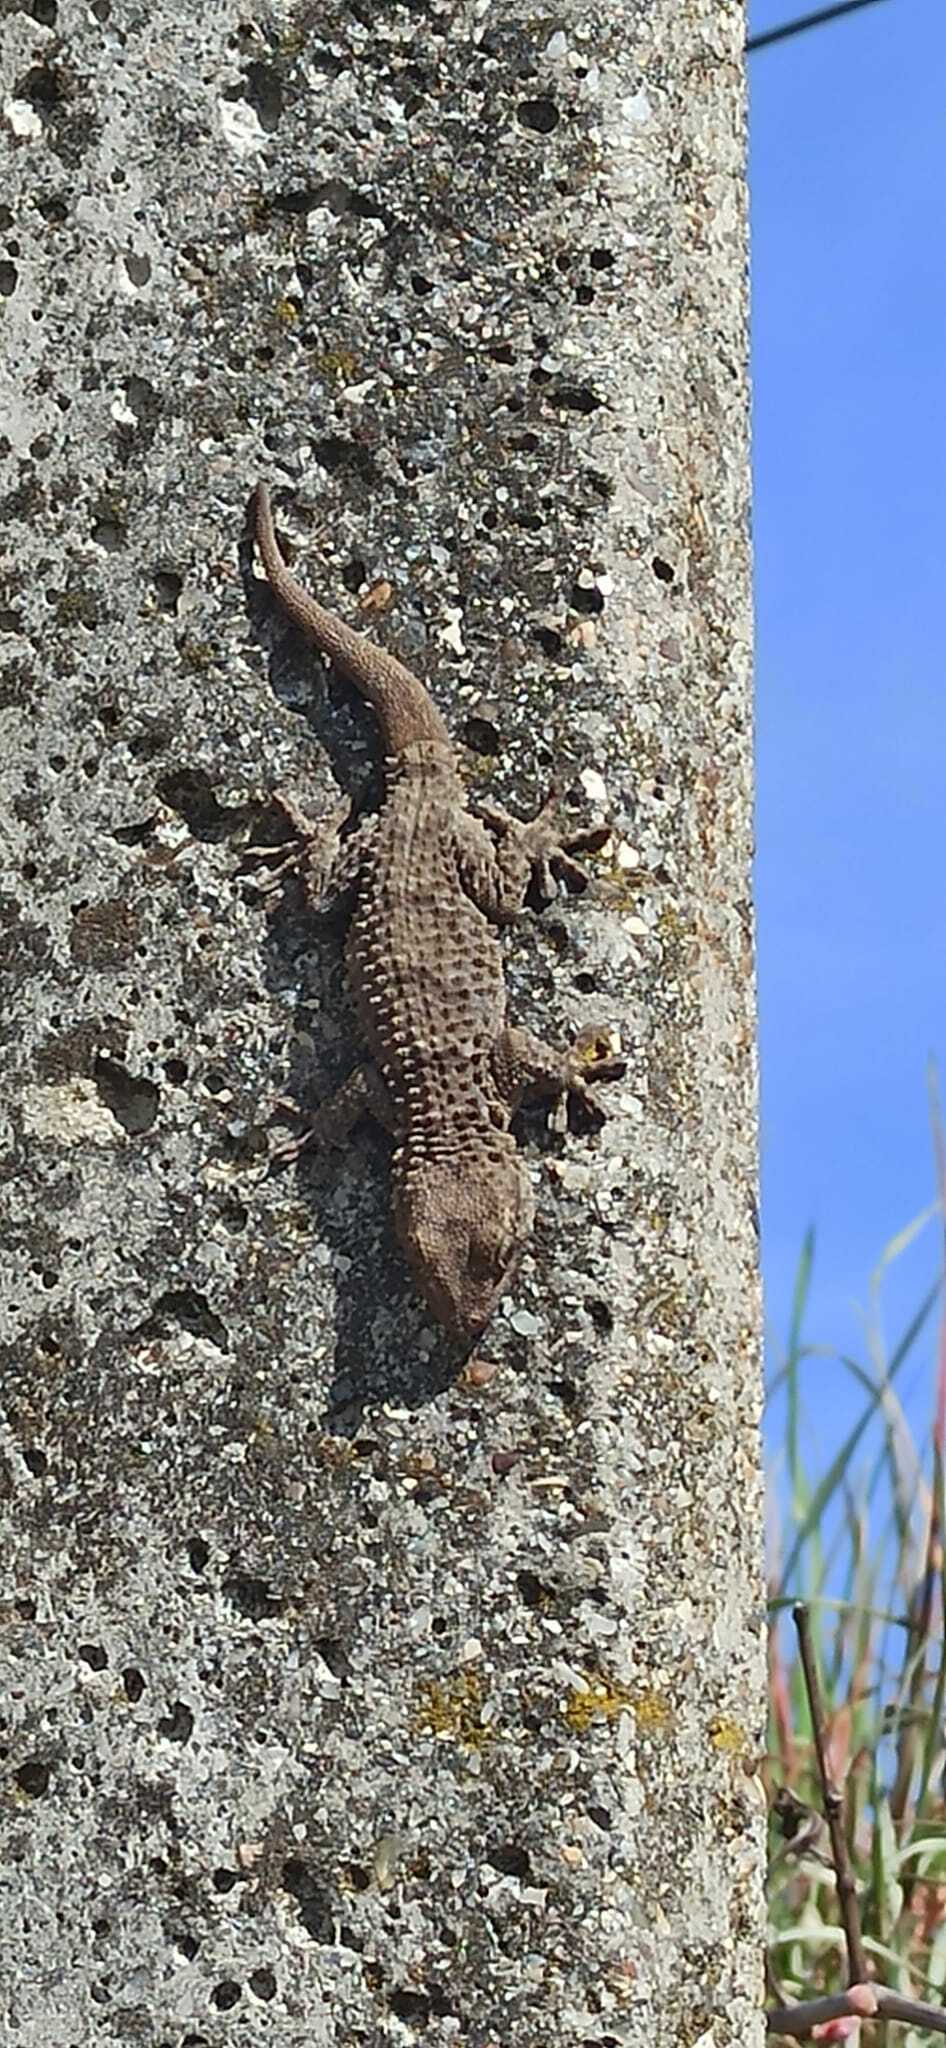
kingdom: Animalia
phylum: Chordata
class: Squamata
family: Phyllodactylidae
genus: Tarentola
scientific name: Tarentola mauritanica
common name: Moorish gecko
